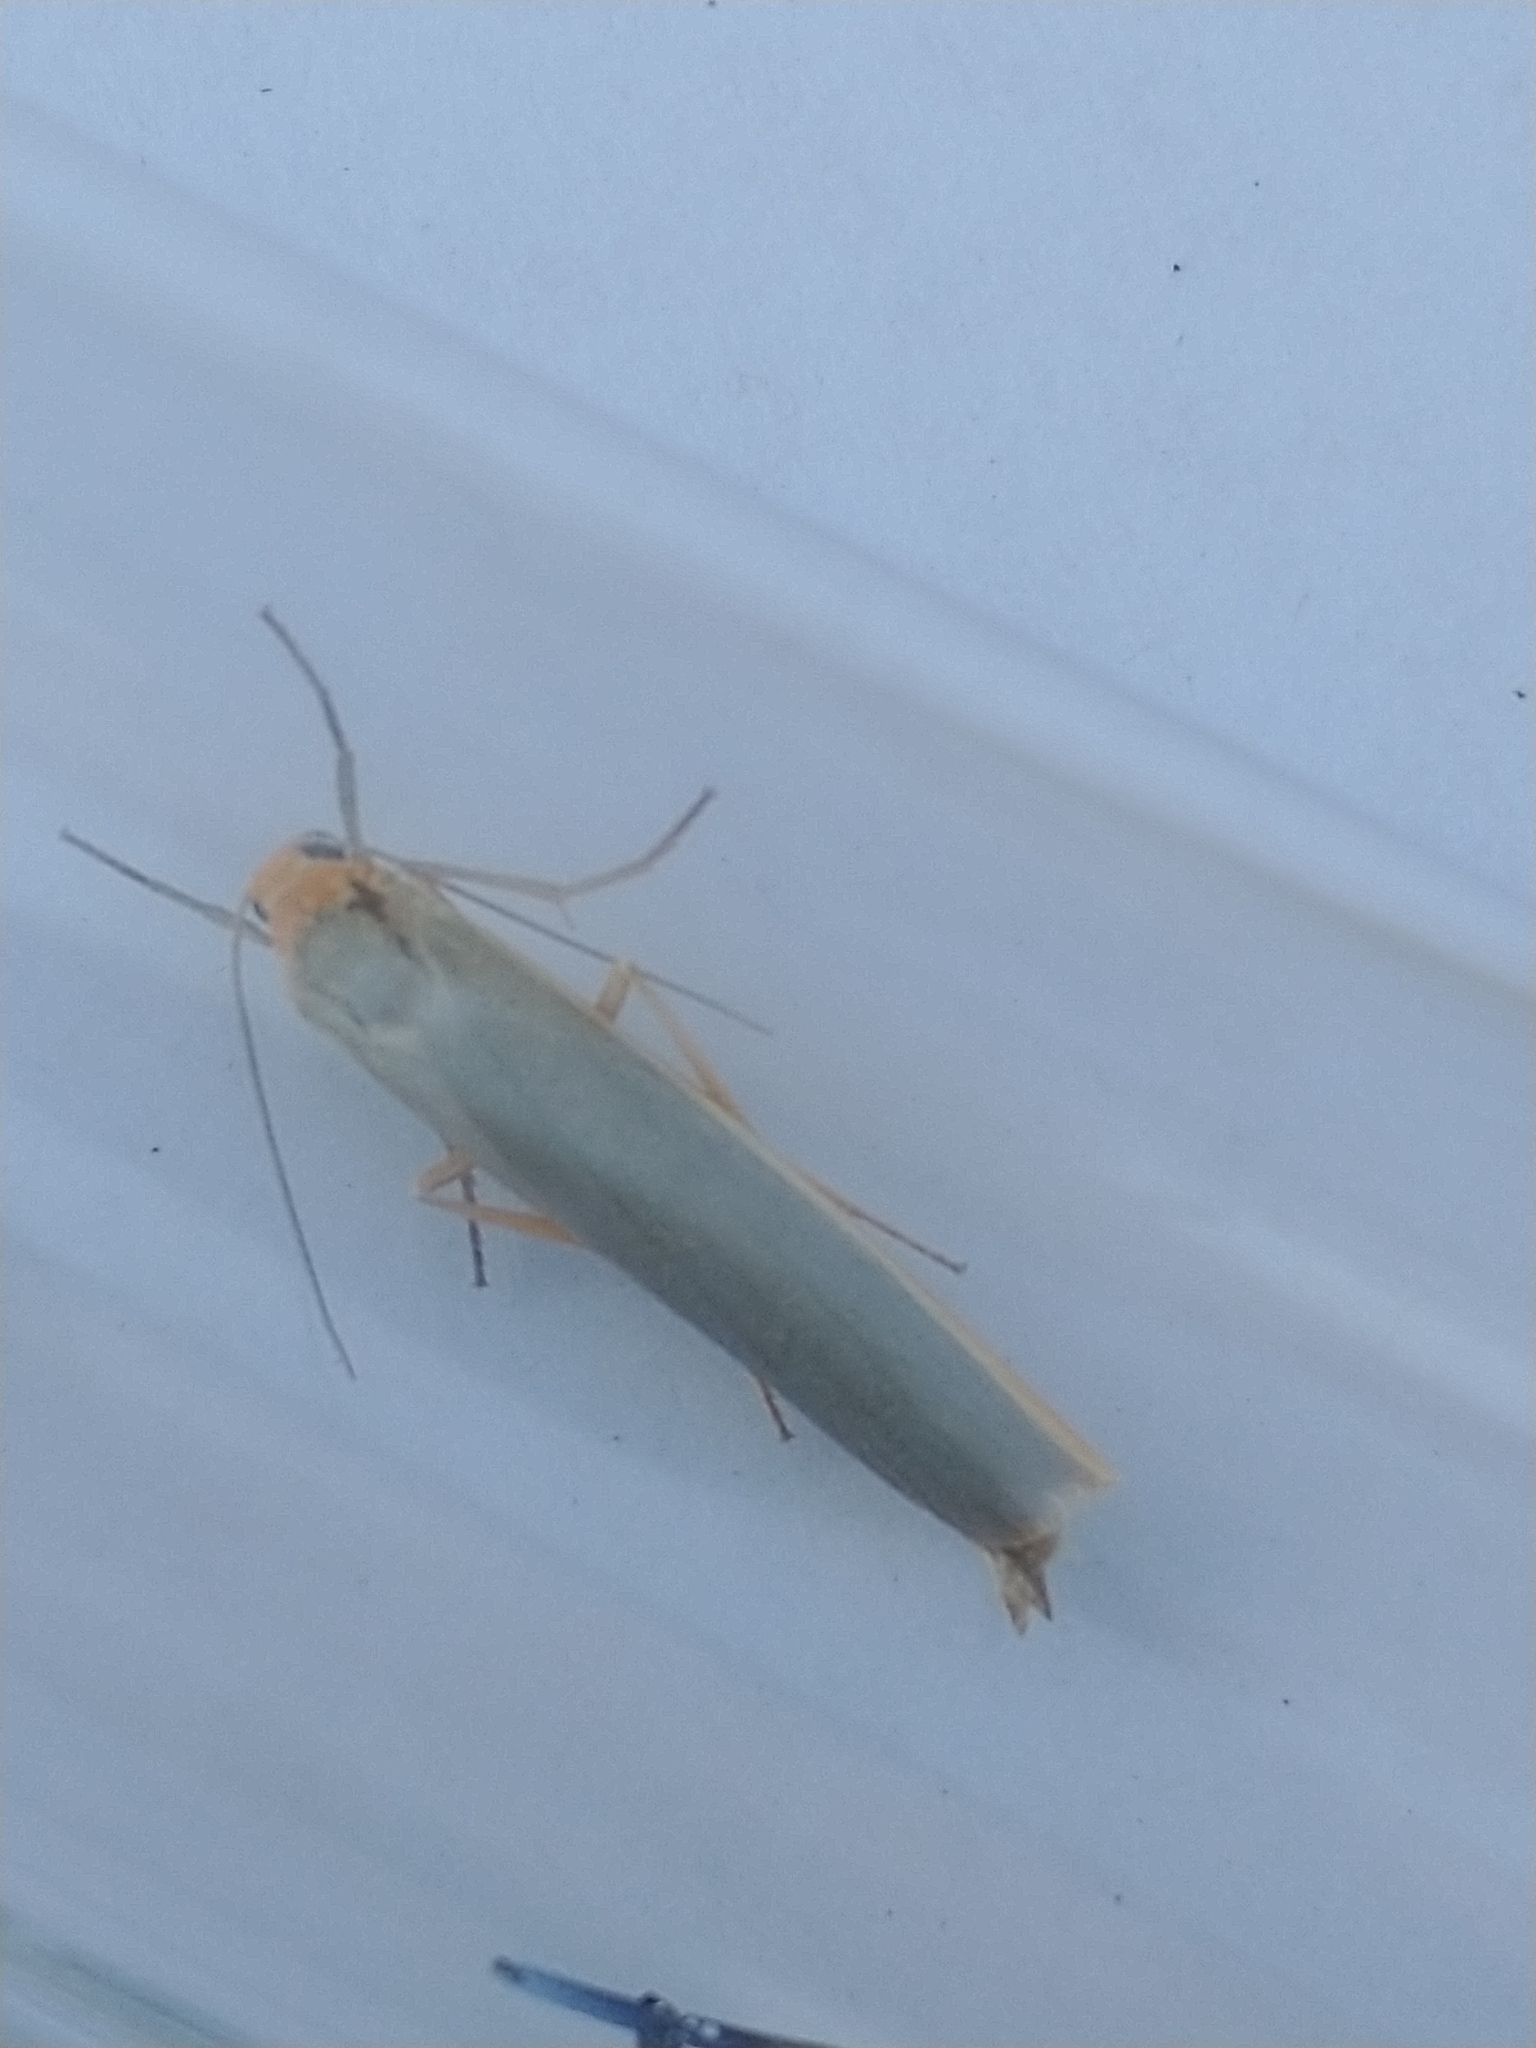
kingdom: Animalia
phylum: Arthropoda
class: Insecta
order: Lepidoptera
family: Erebidae
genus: Manulea
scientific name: Manulea complana
